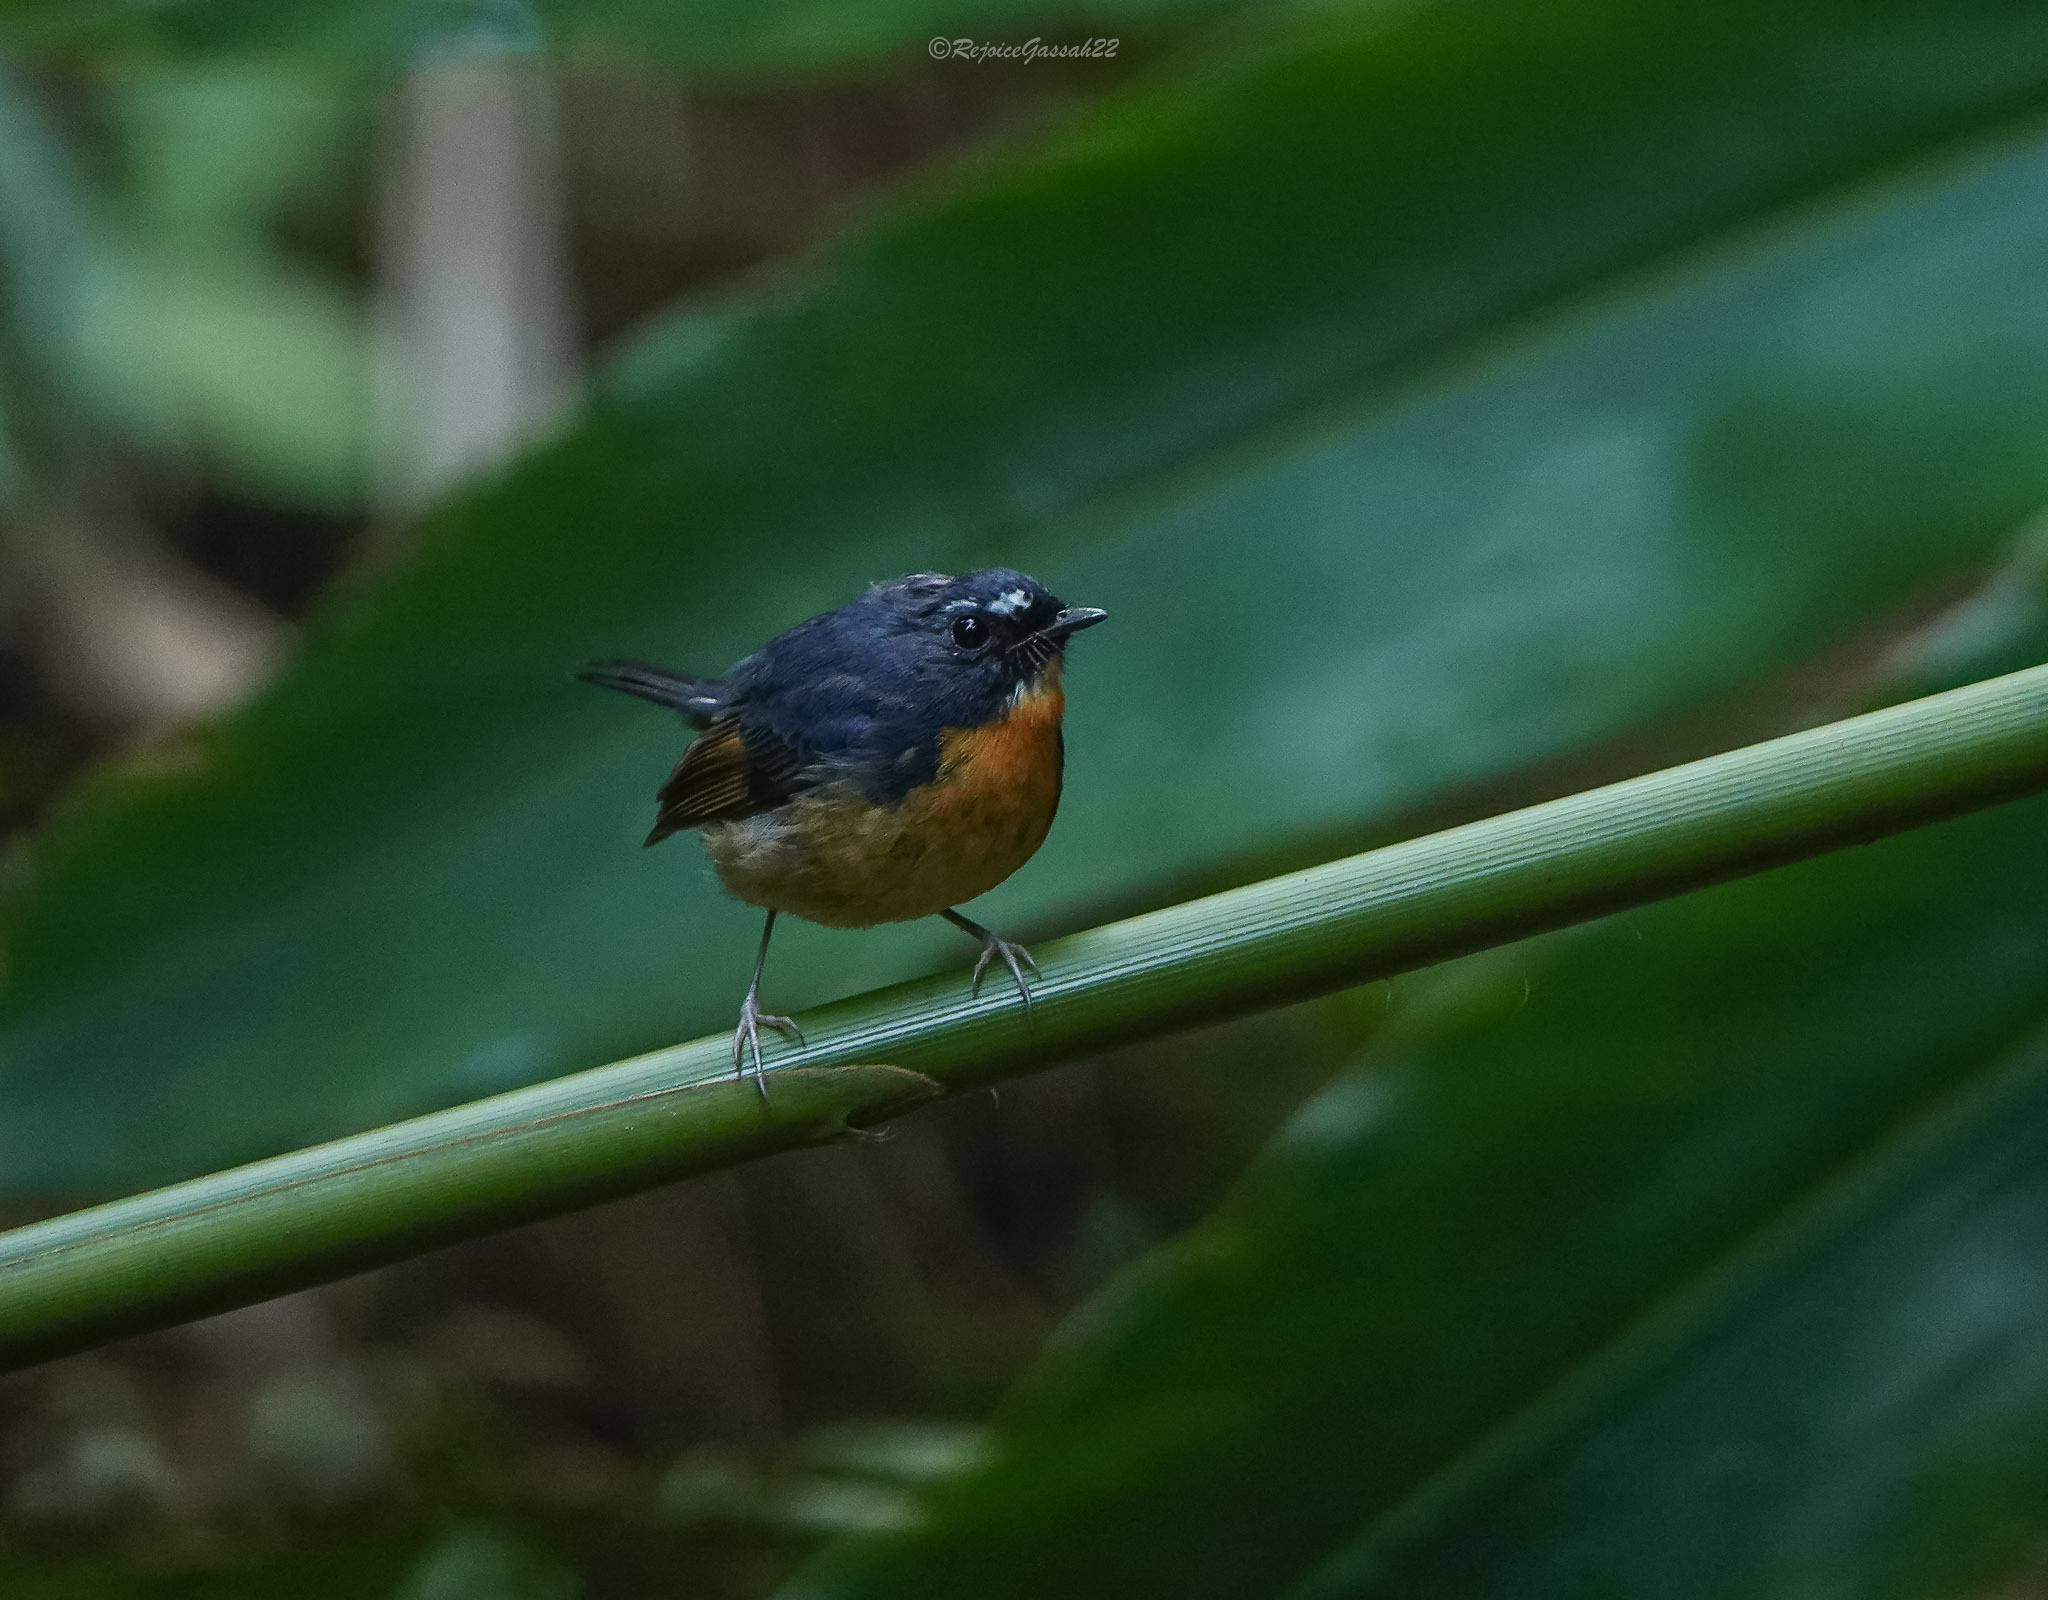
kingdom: Animalia
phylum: Chordata
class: Aves
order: Passeriformes
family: Muscicapidae
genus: Ficedula
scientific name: Ficedula hyperythra
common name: Snowy-browed flycatcher
